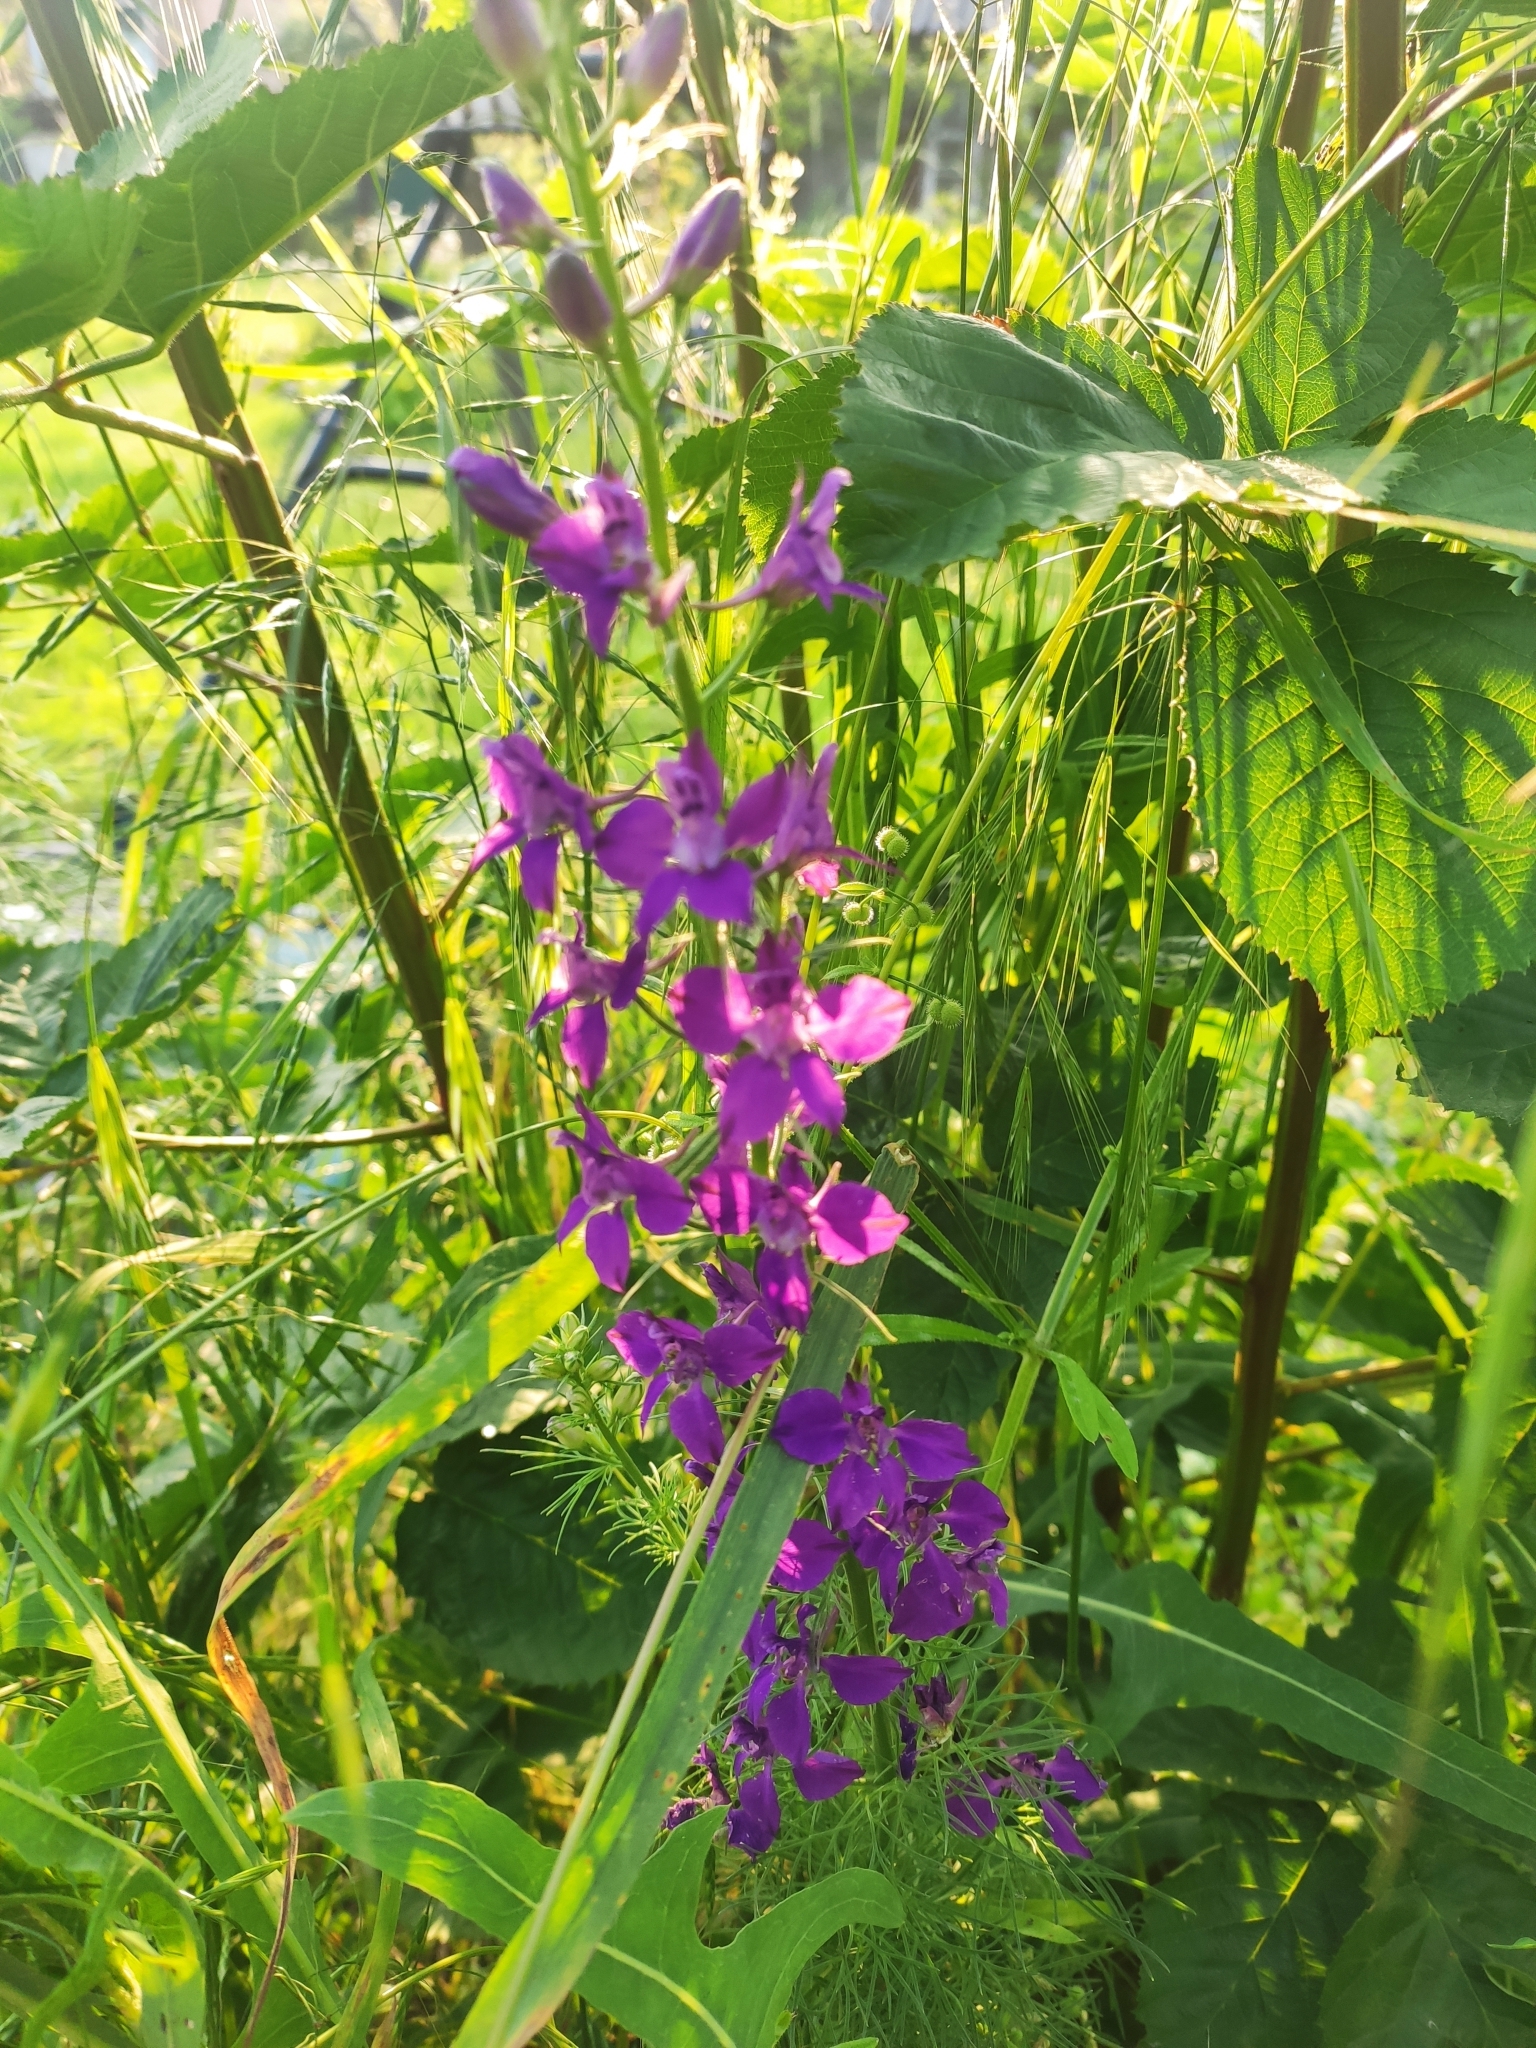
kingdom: Plantae
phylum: Tracheophyta
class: Magnoliopsida
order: Ranunculales
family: Ranunculaceae
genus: Delphinium
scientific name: Delphinium ajacis
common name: Doubtful knight's-spur
